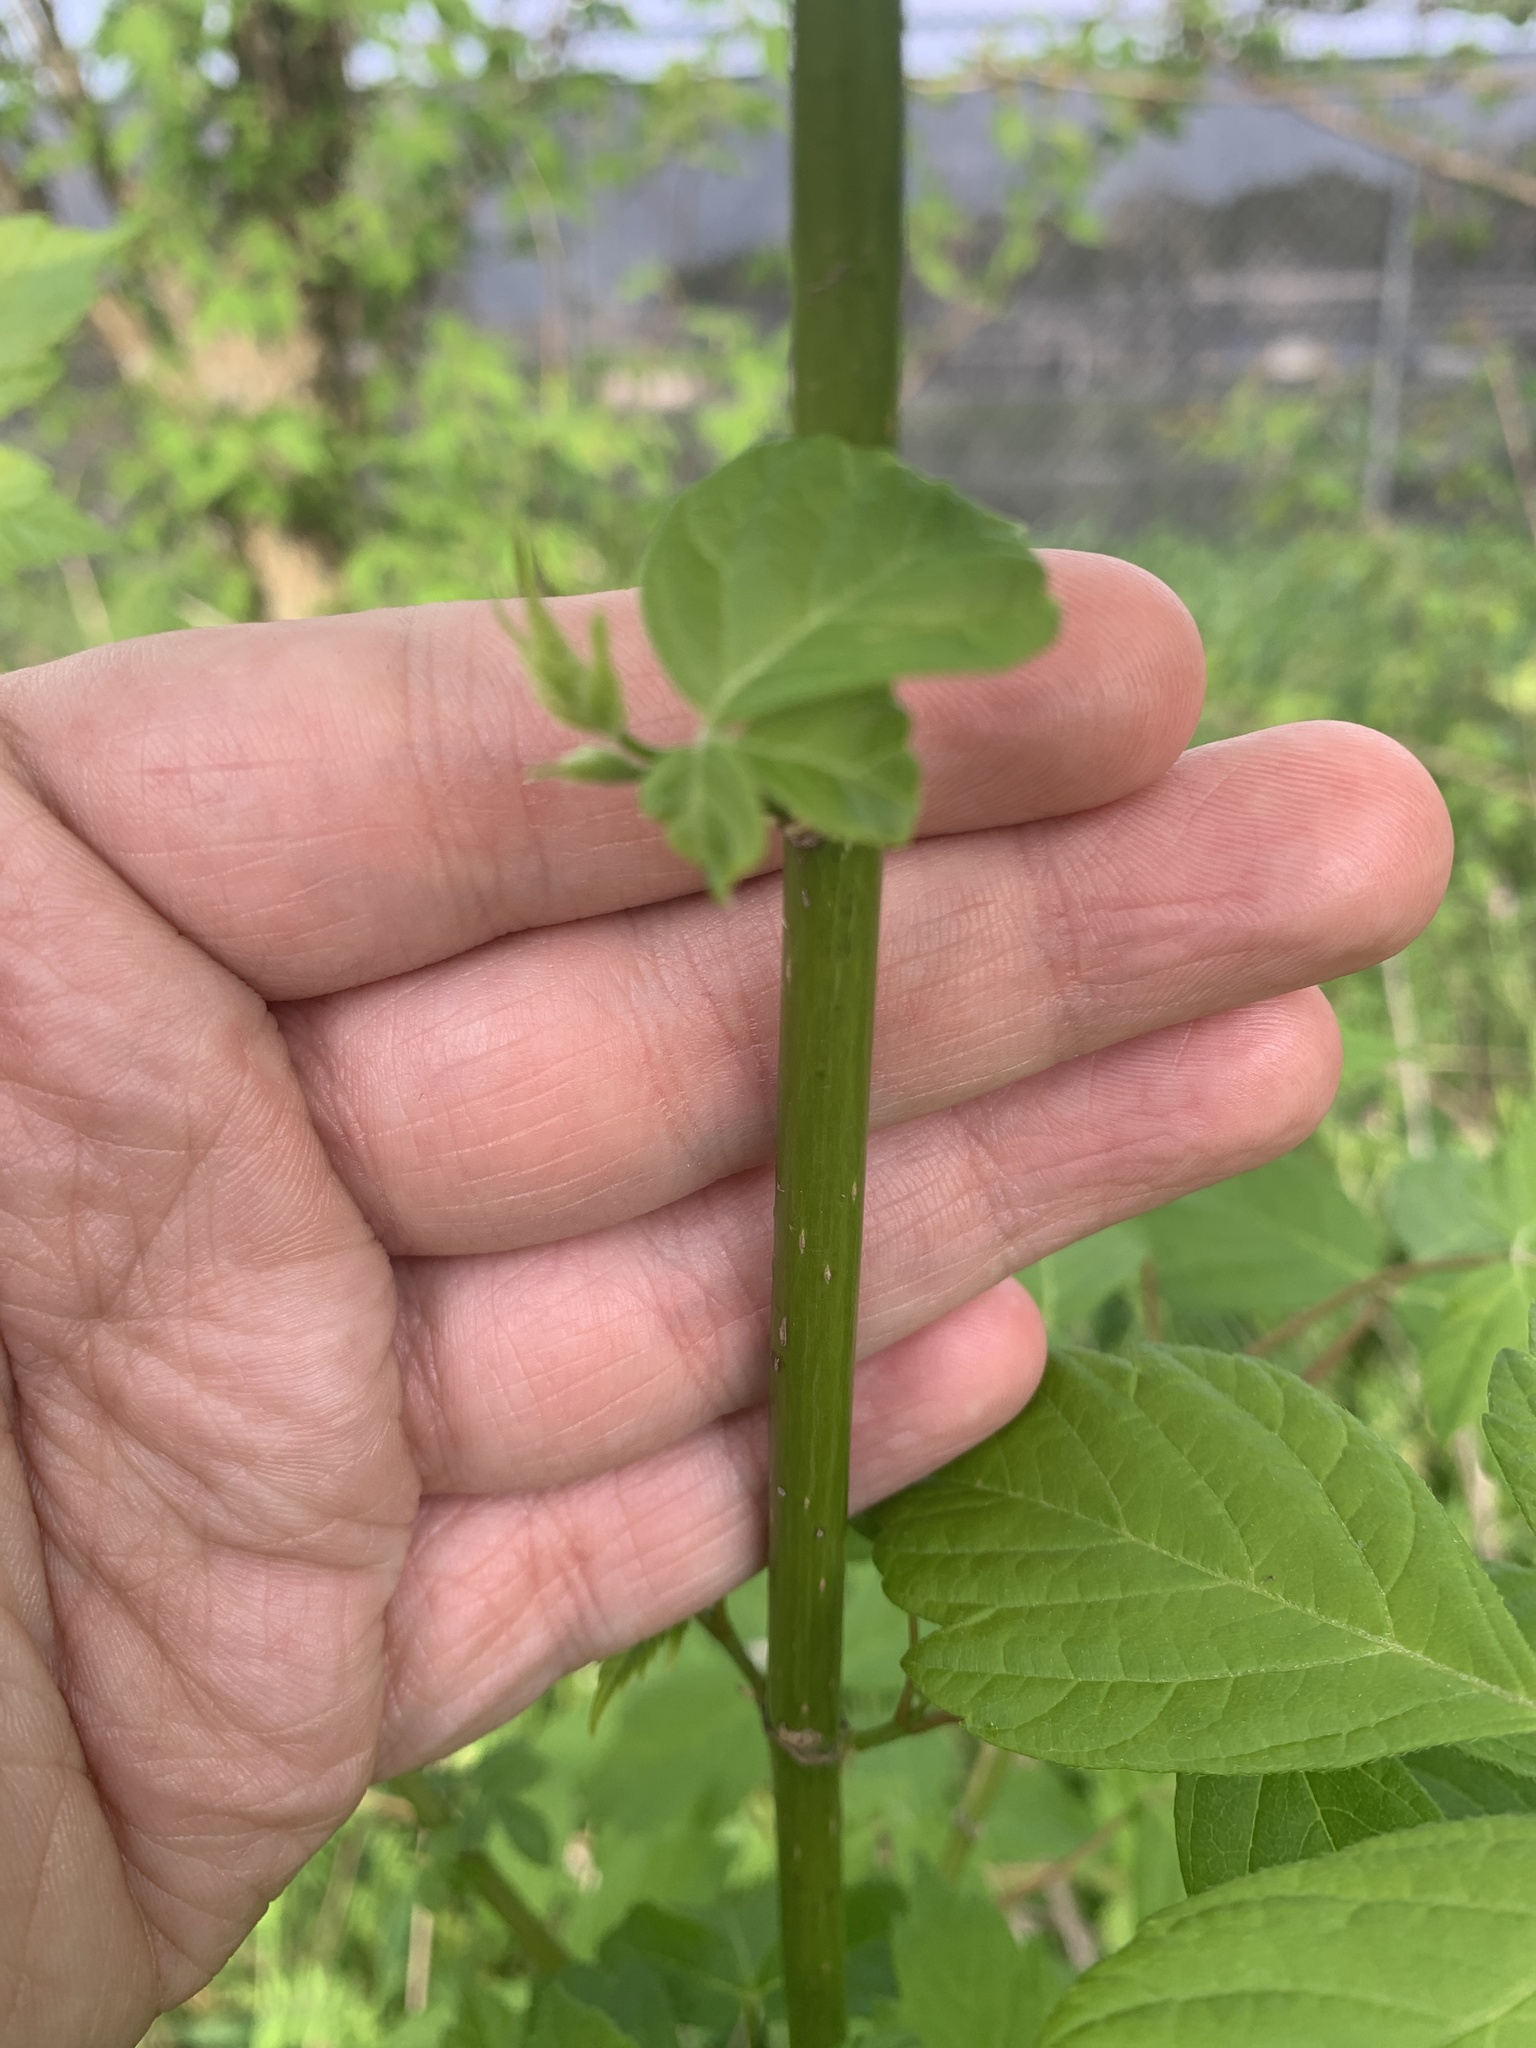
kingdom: Plantae
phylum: Tracheophyta
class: Magnoliopsida
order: Sapindales
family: Sapindaceae
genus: Acer
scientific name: Acer negundo
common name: Ashleaf maple
